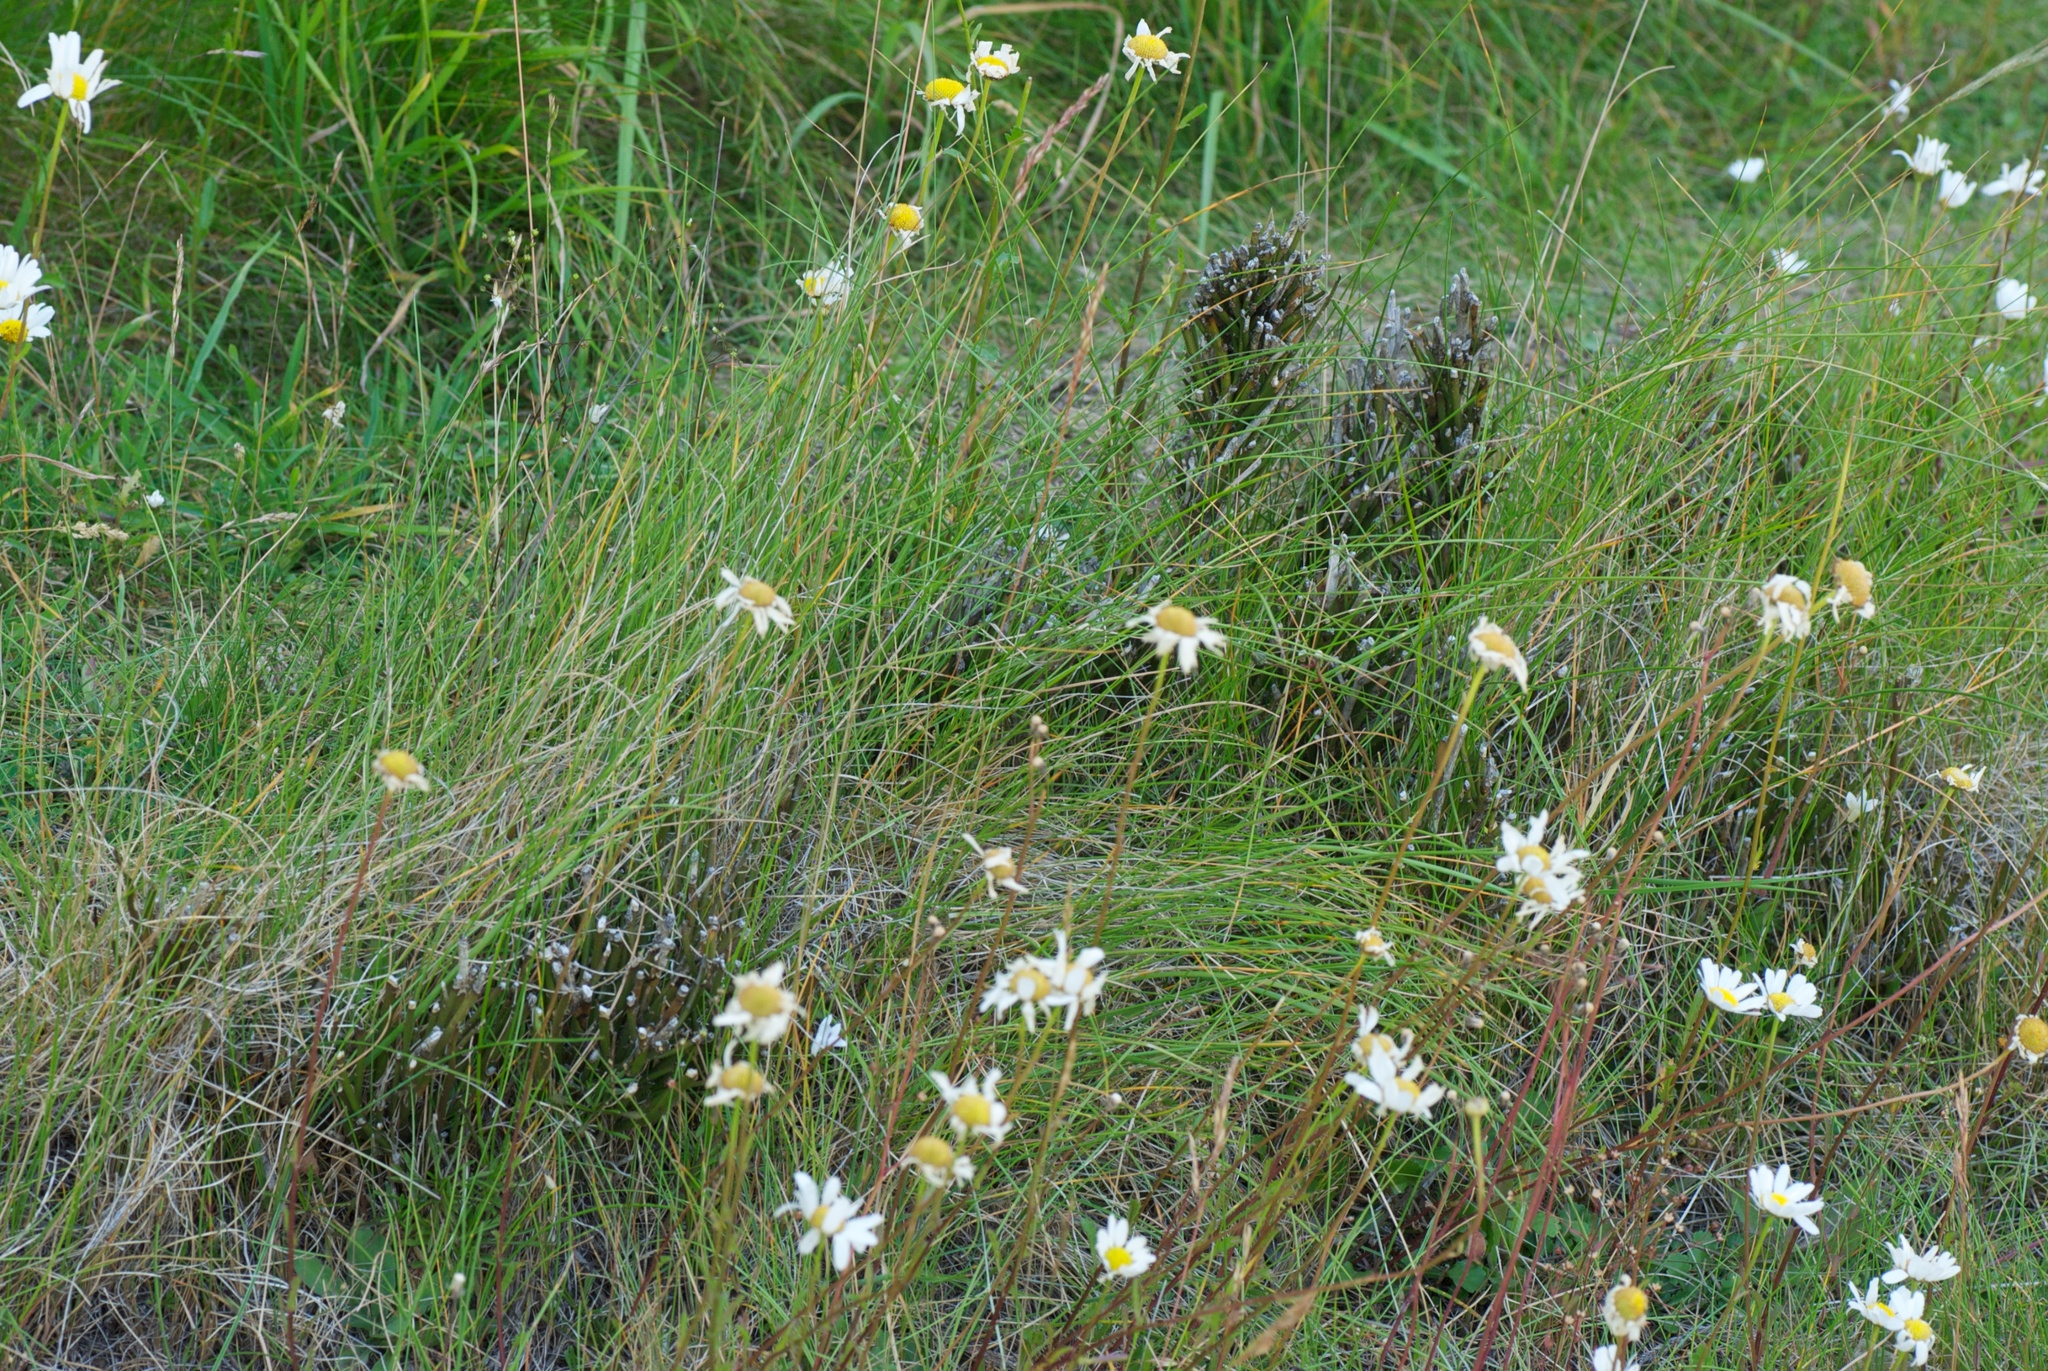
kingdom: Plantae
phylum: Tracheophyta
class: Magnoliopsida
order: Asterales
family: Asteraceae
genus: Leucanthemum
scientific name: Leucanthemum vulgare
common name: Oxeye daisy
